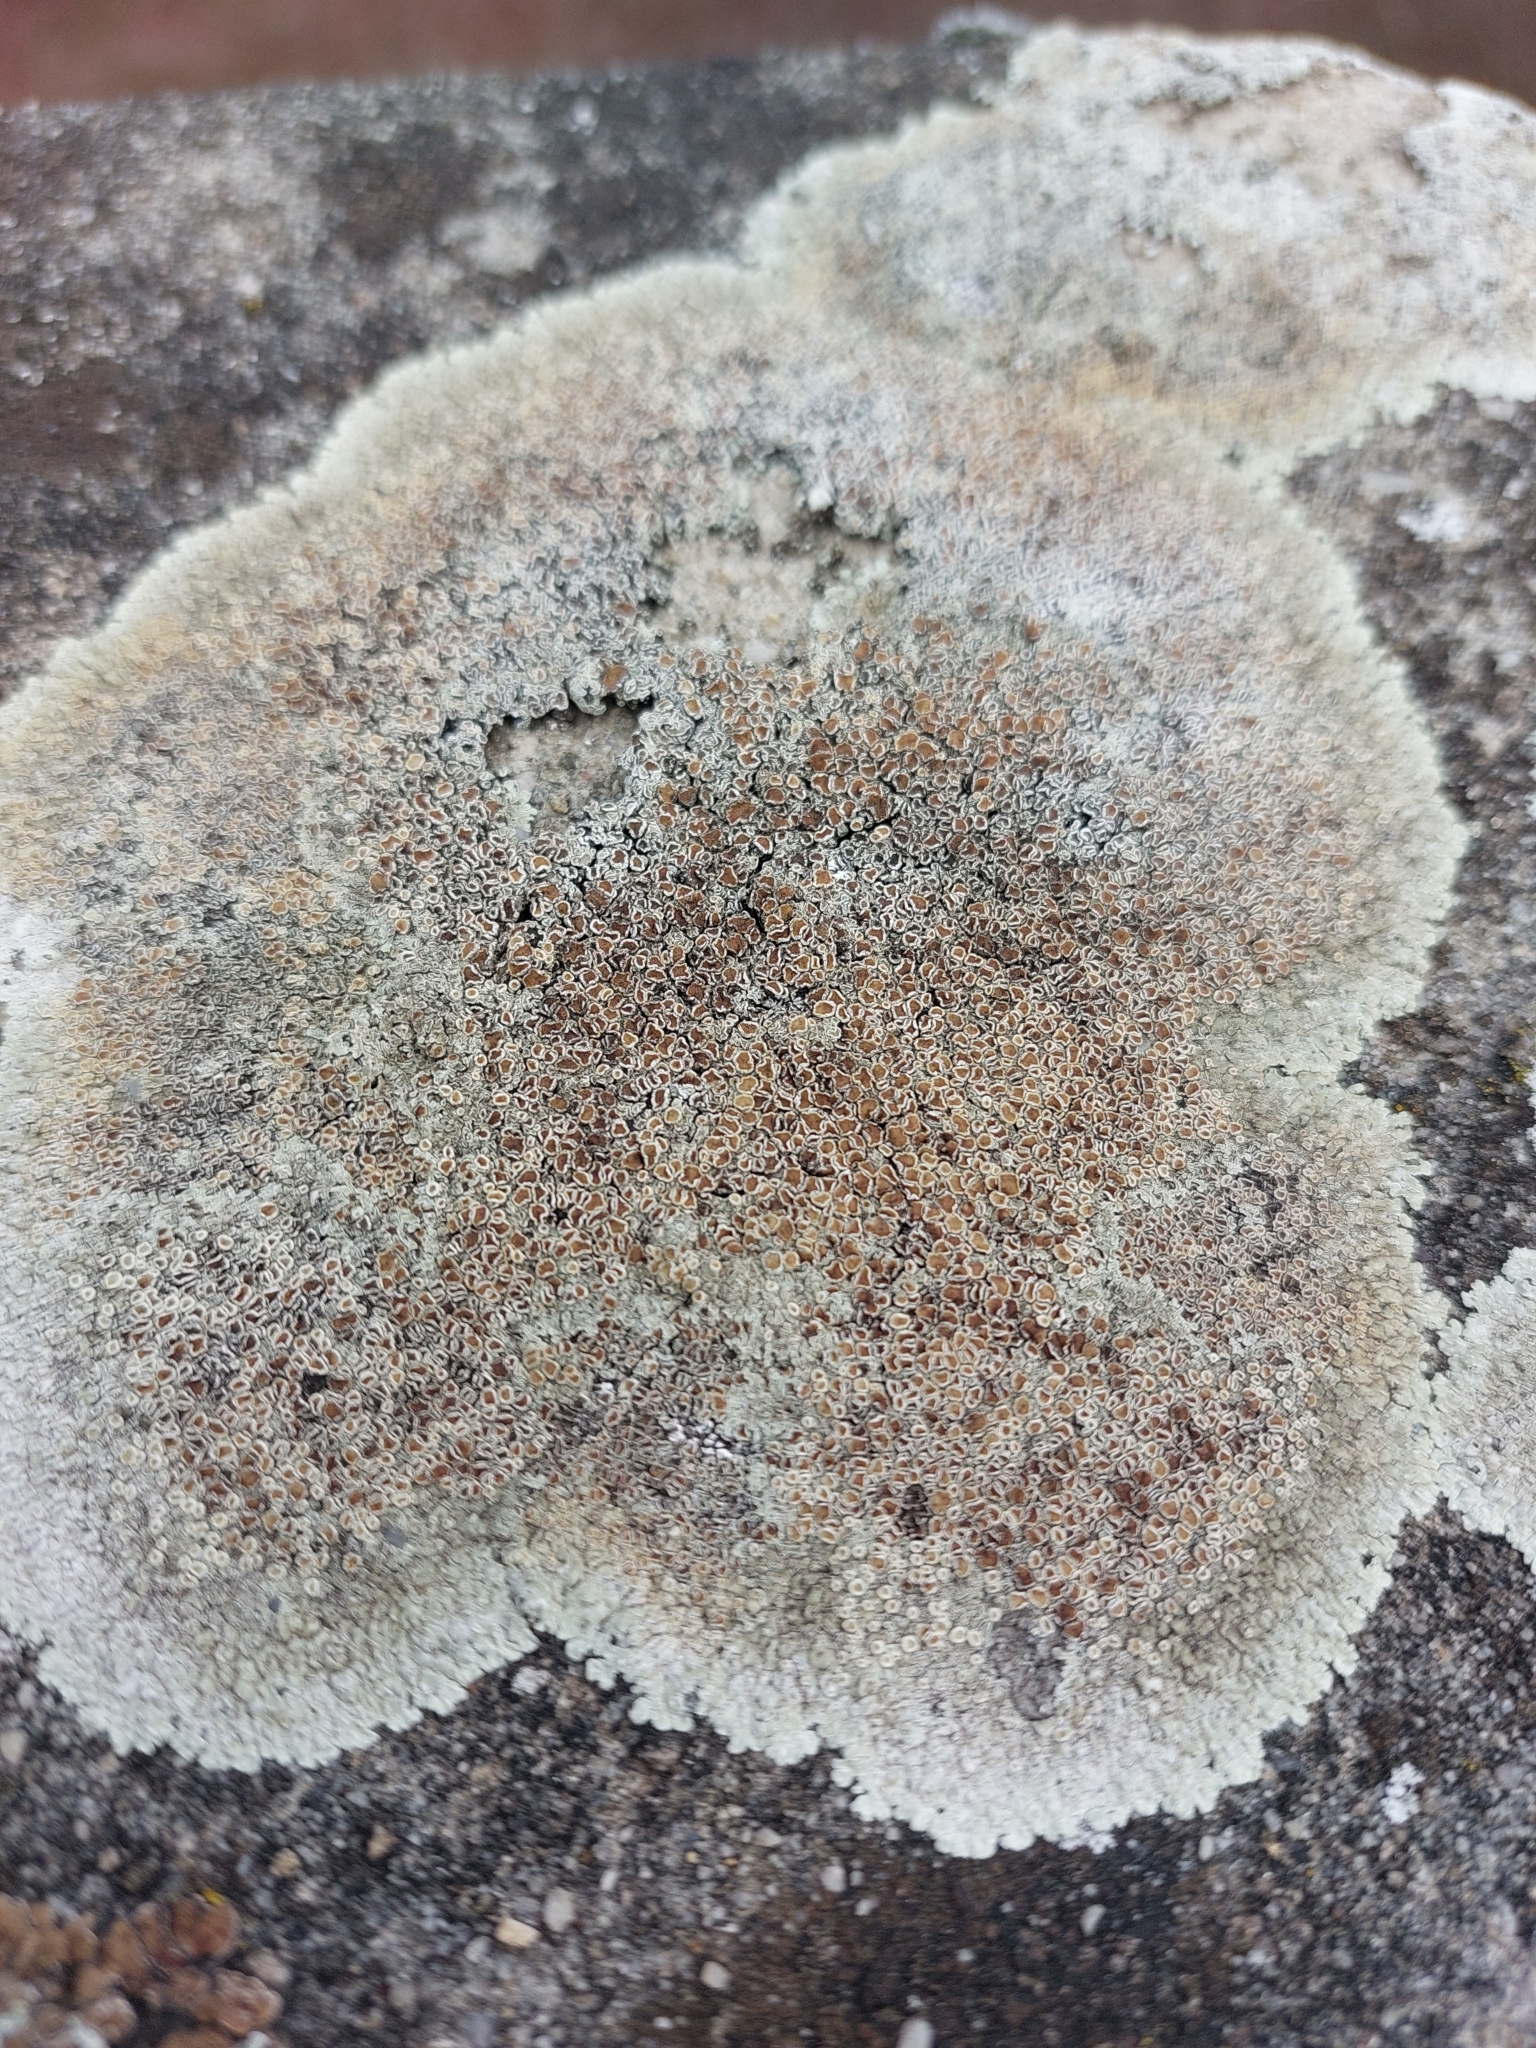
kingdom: Fungi
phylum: Ascomycota
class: Lecanoromycetes
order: Lecanorales
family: Lecanoraceae
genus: Protoparmeliopsis
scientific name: Protoparmeliopsis muralis
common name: Stonewall rim lichen
